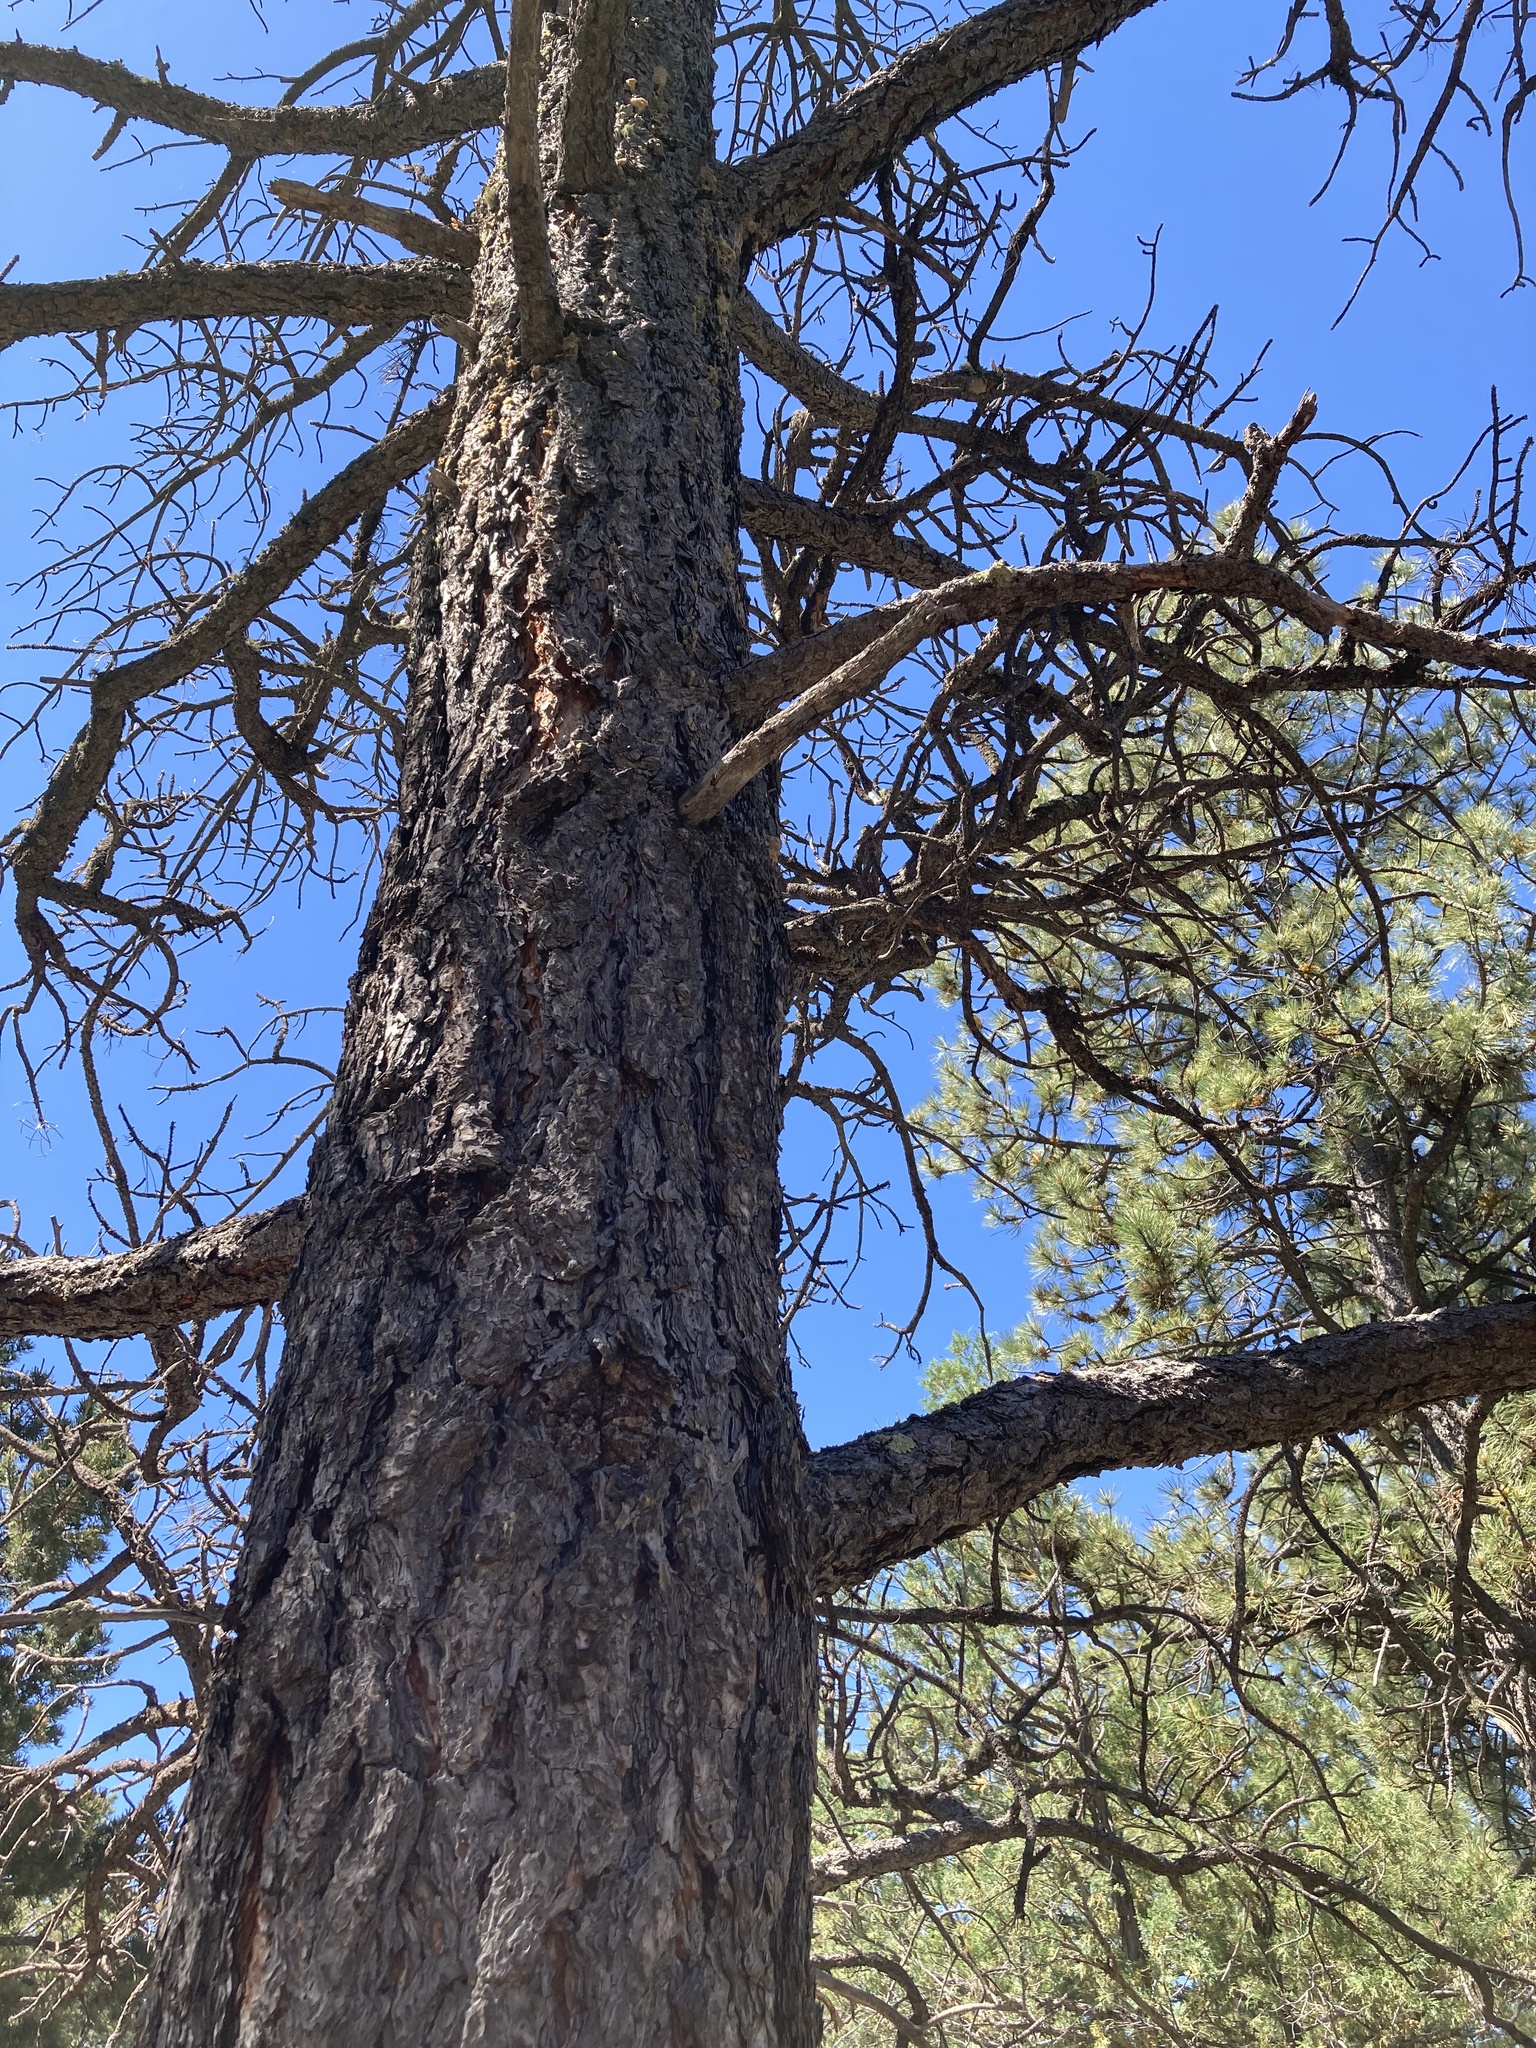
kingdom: Plantae
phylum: Tracheophyta
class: Pinopsida
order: Pinales
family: Pinaceae
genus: Pinus
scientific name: Pinus ponderosa
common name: Western yellow-pine
